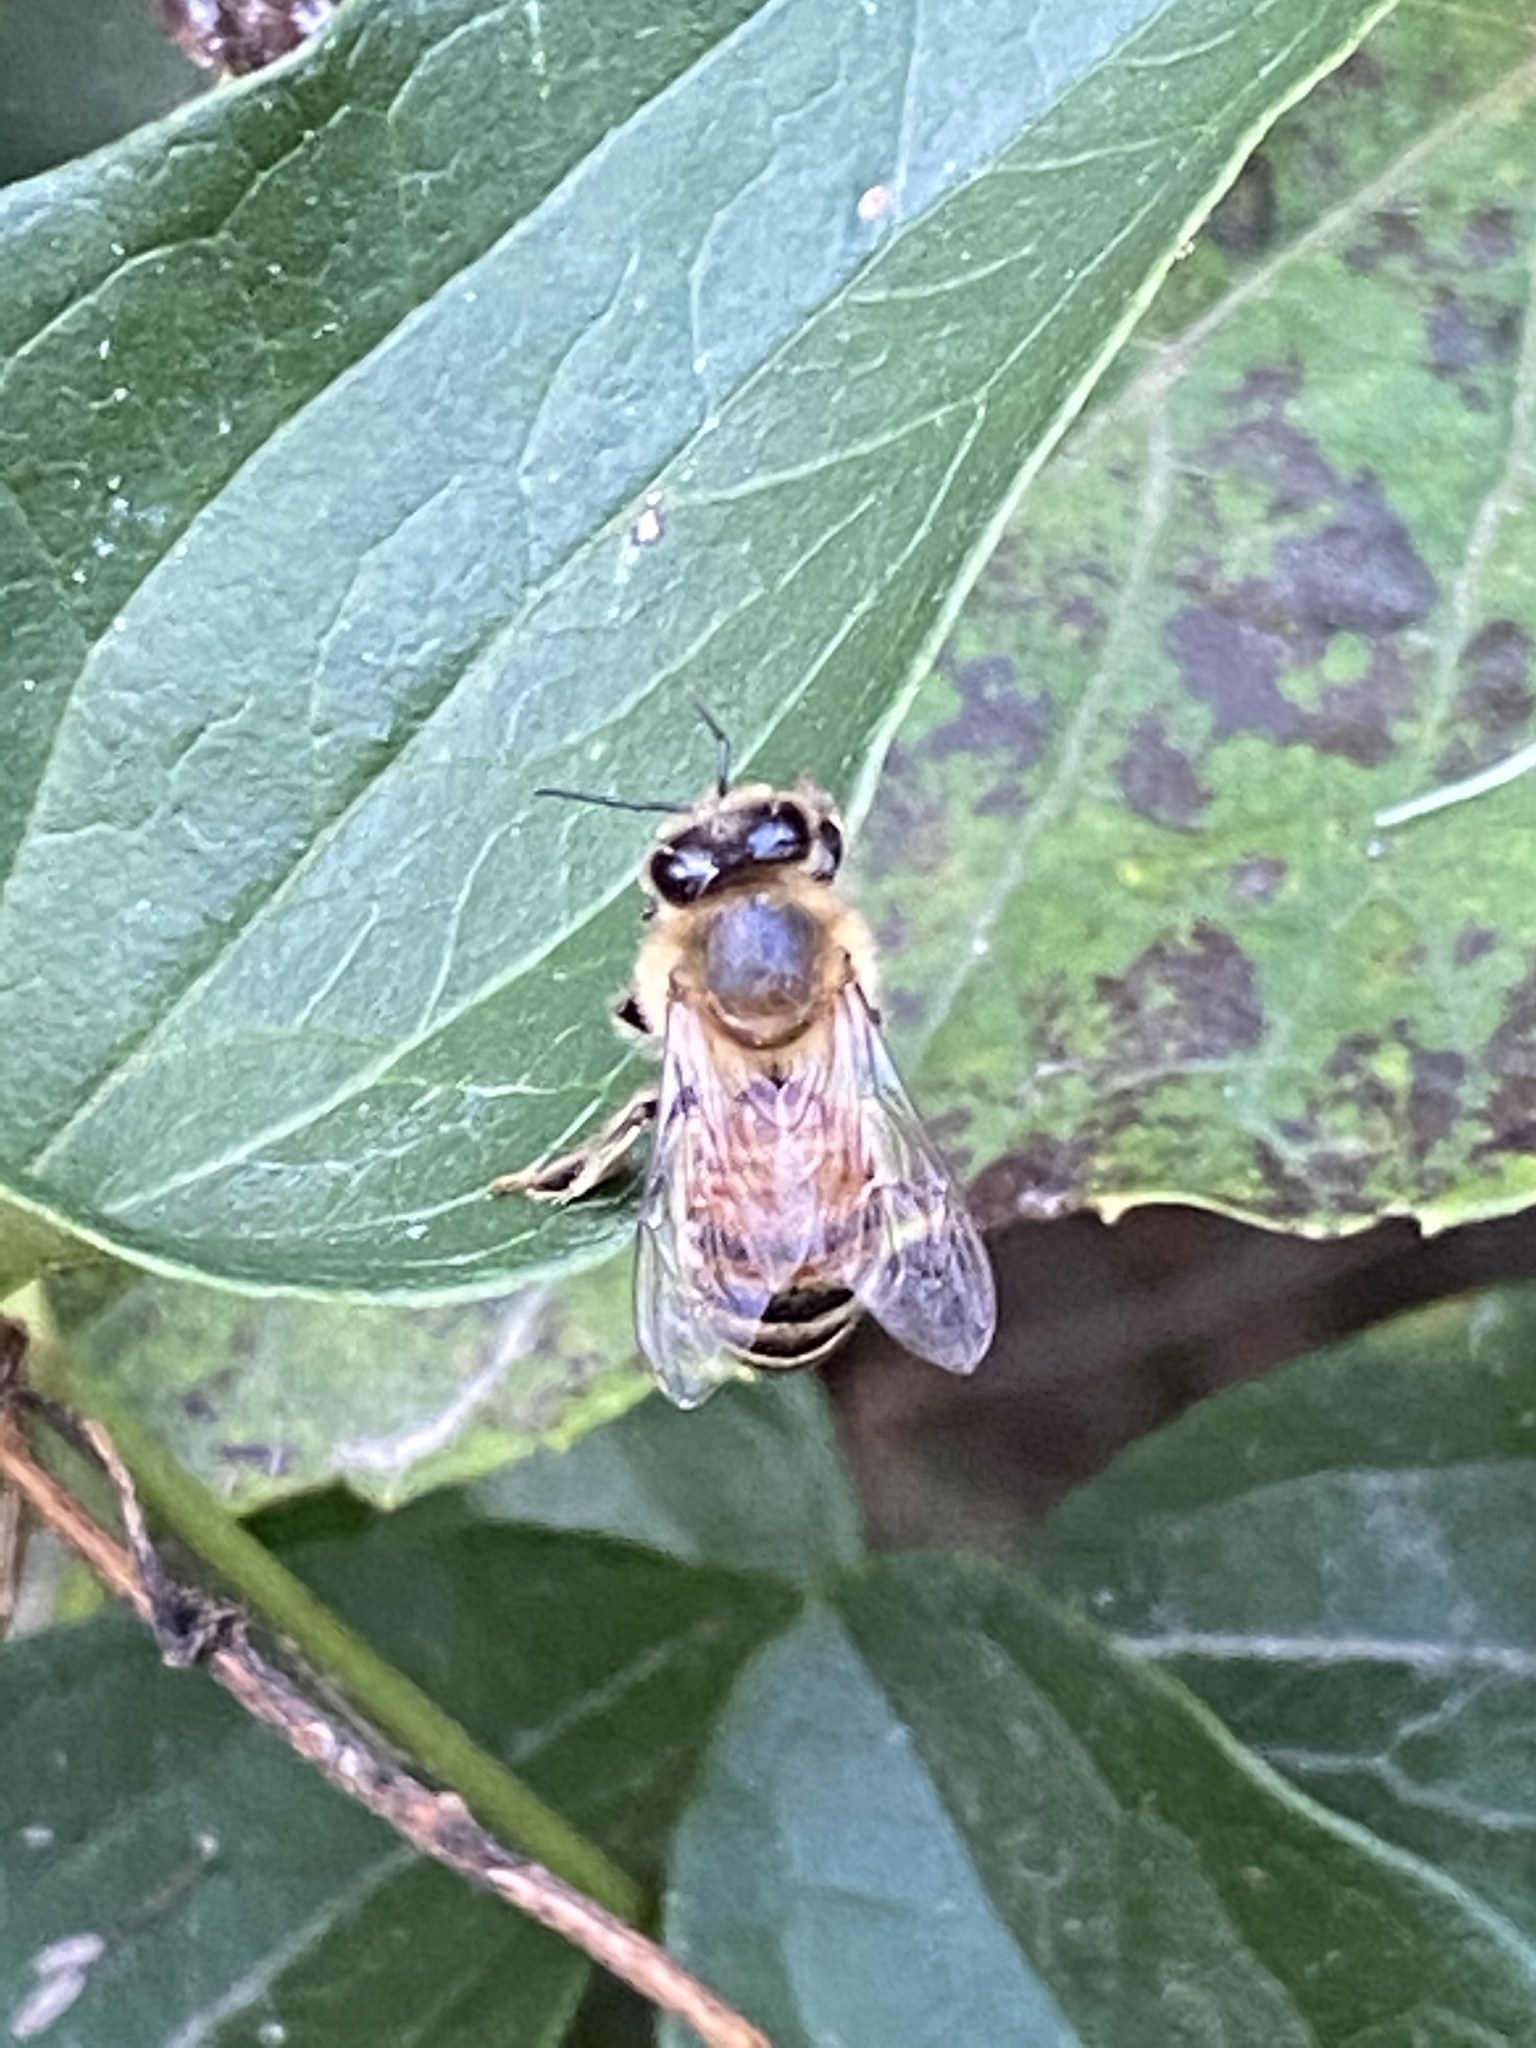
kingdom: Animalia
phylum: Arthropoda
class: Insecta
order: Hymenoptera
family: Apidae
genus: Apis
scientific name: Apis mellifera
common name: Honey bee
